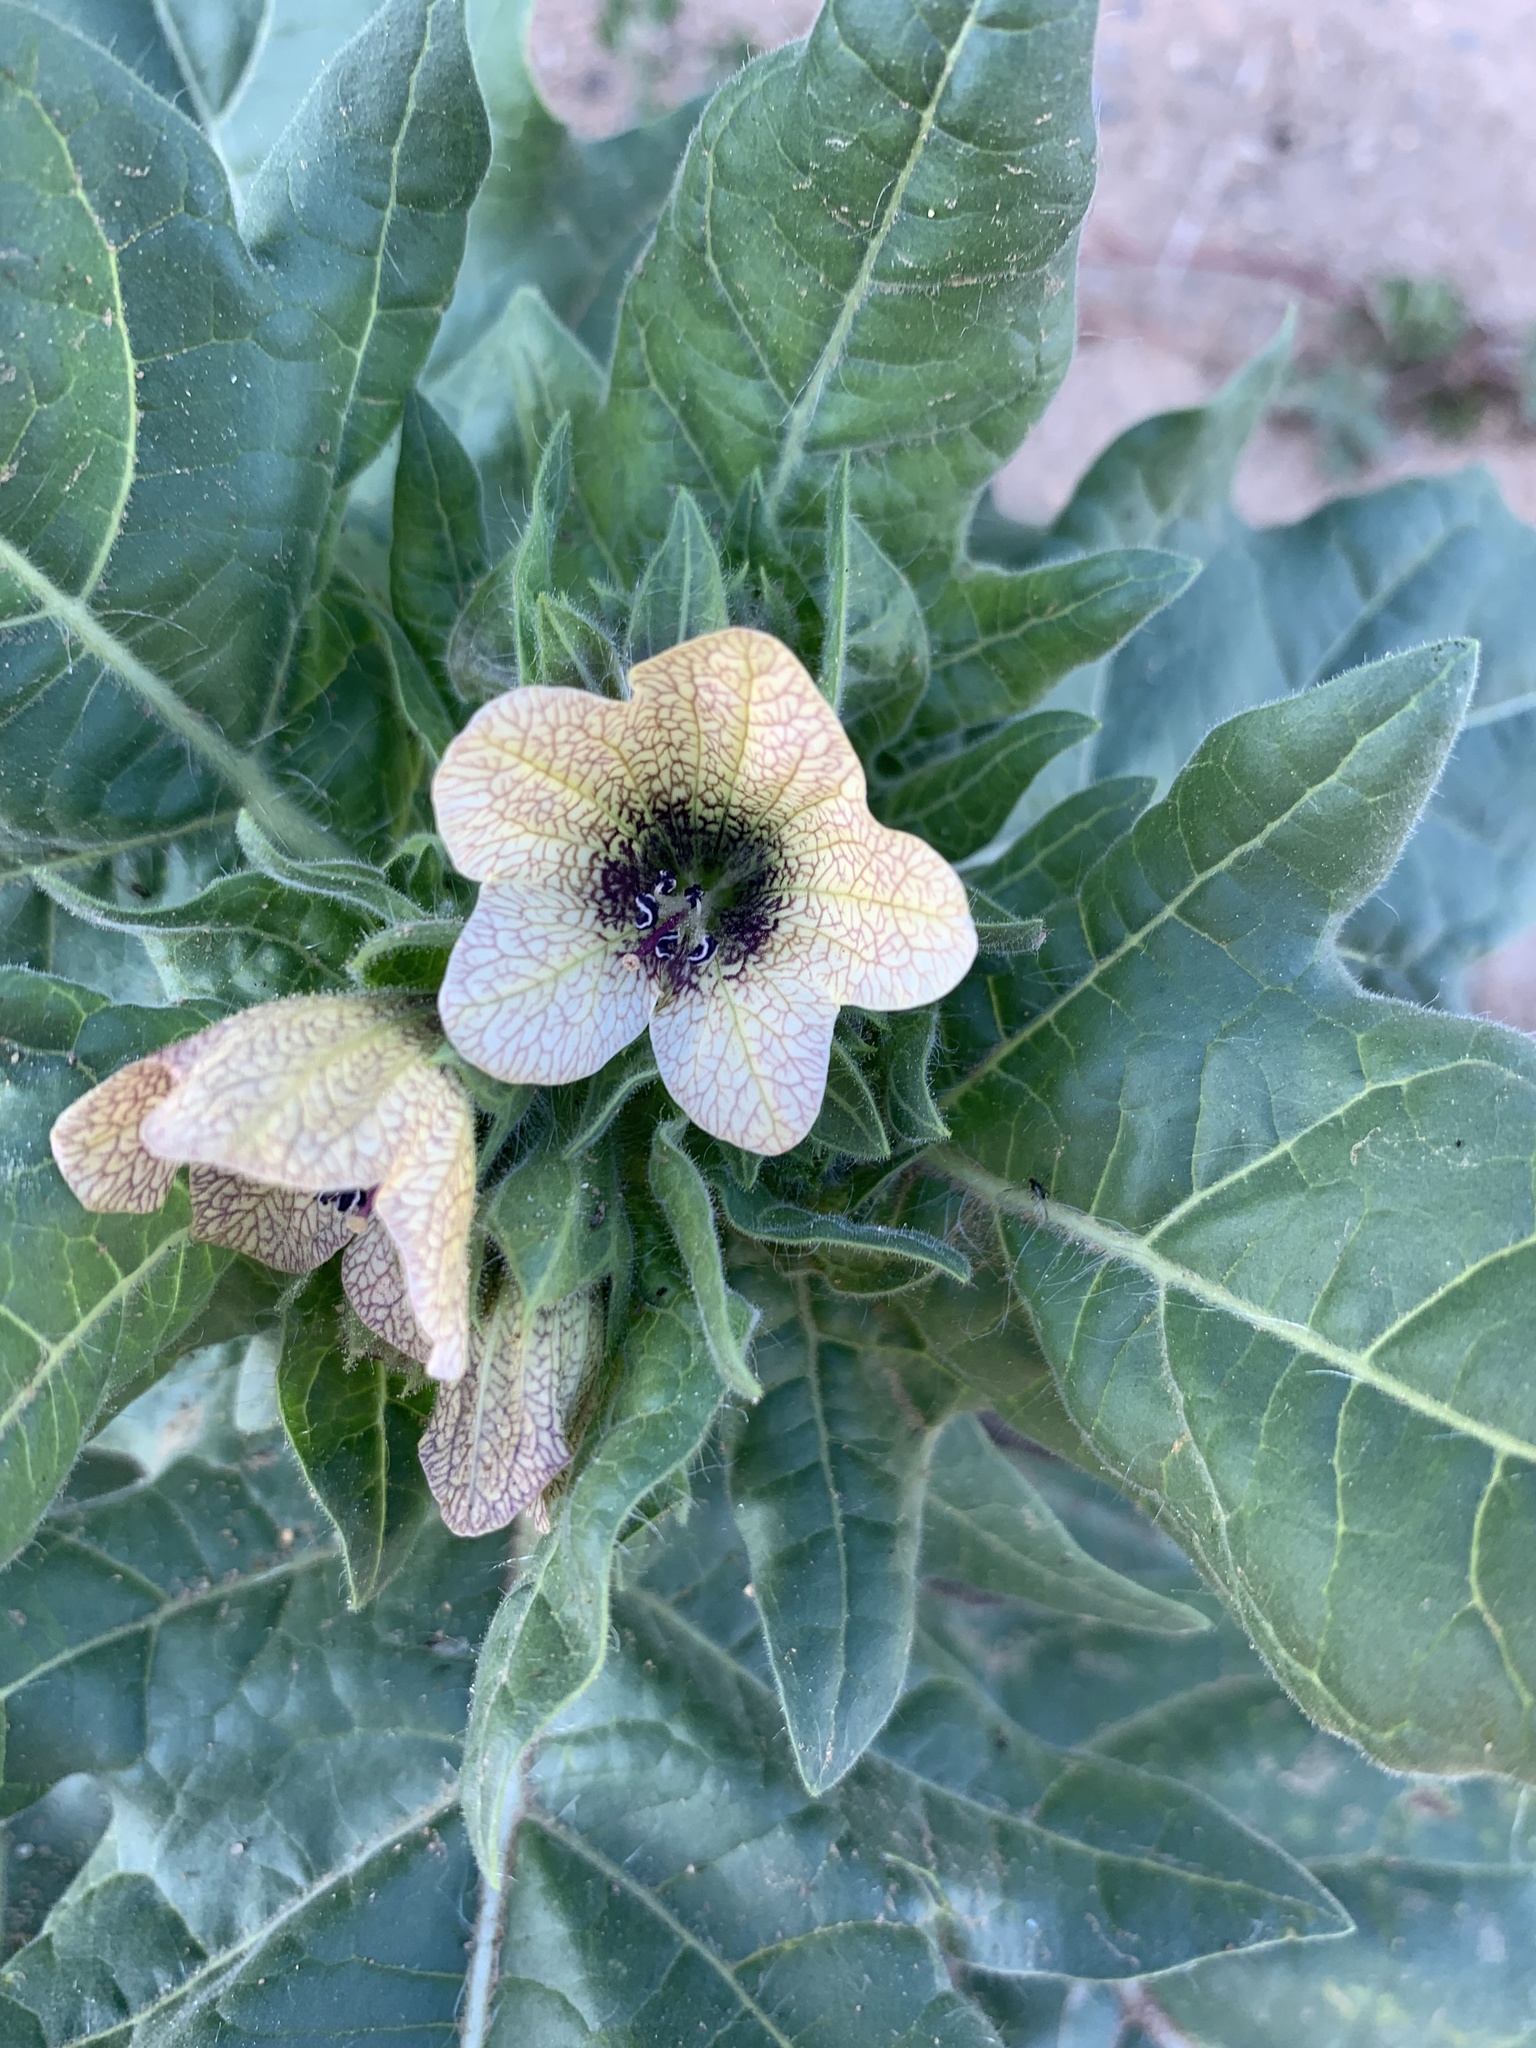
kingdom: Plantae
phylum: Tracheophyta
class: Magnoliopsida
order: Solanales
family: Solanaceae
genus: Hyoscyamus
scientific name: Hyoscyamus niger
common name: Henbane
